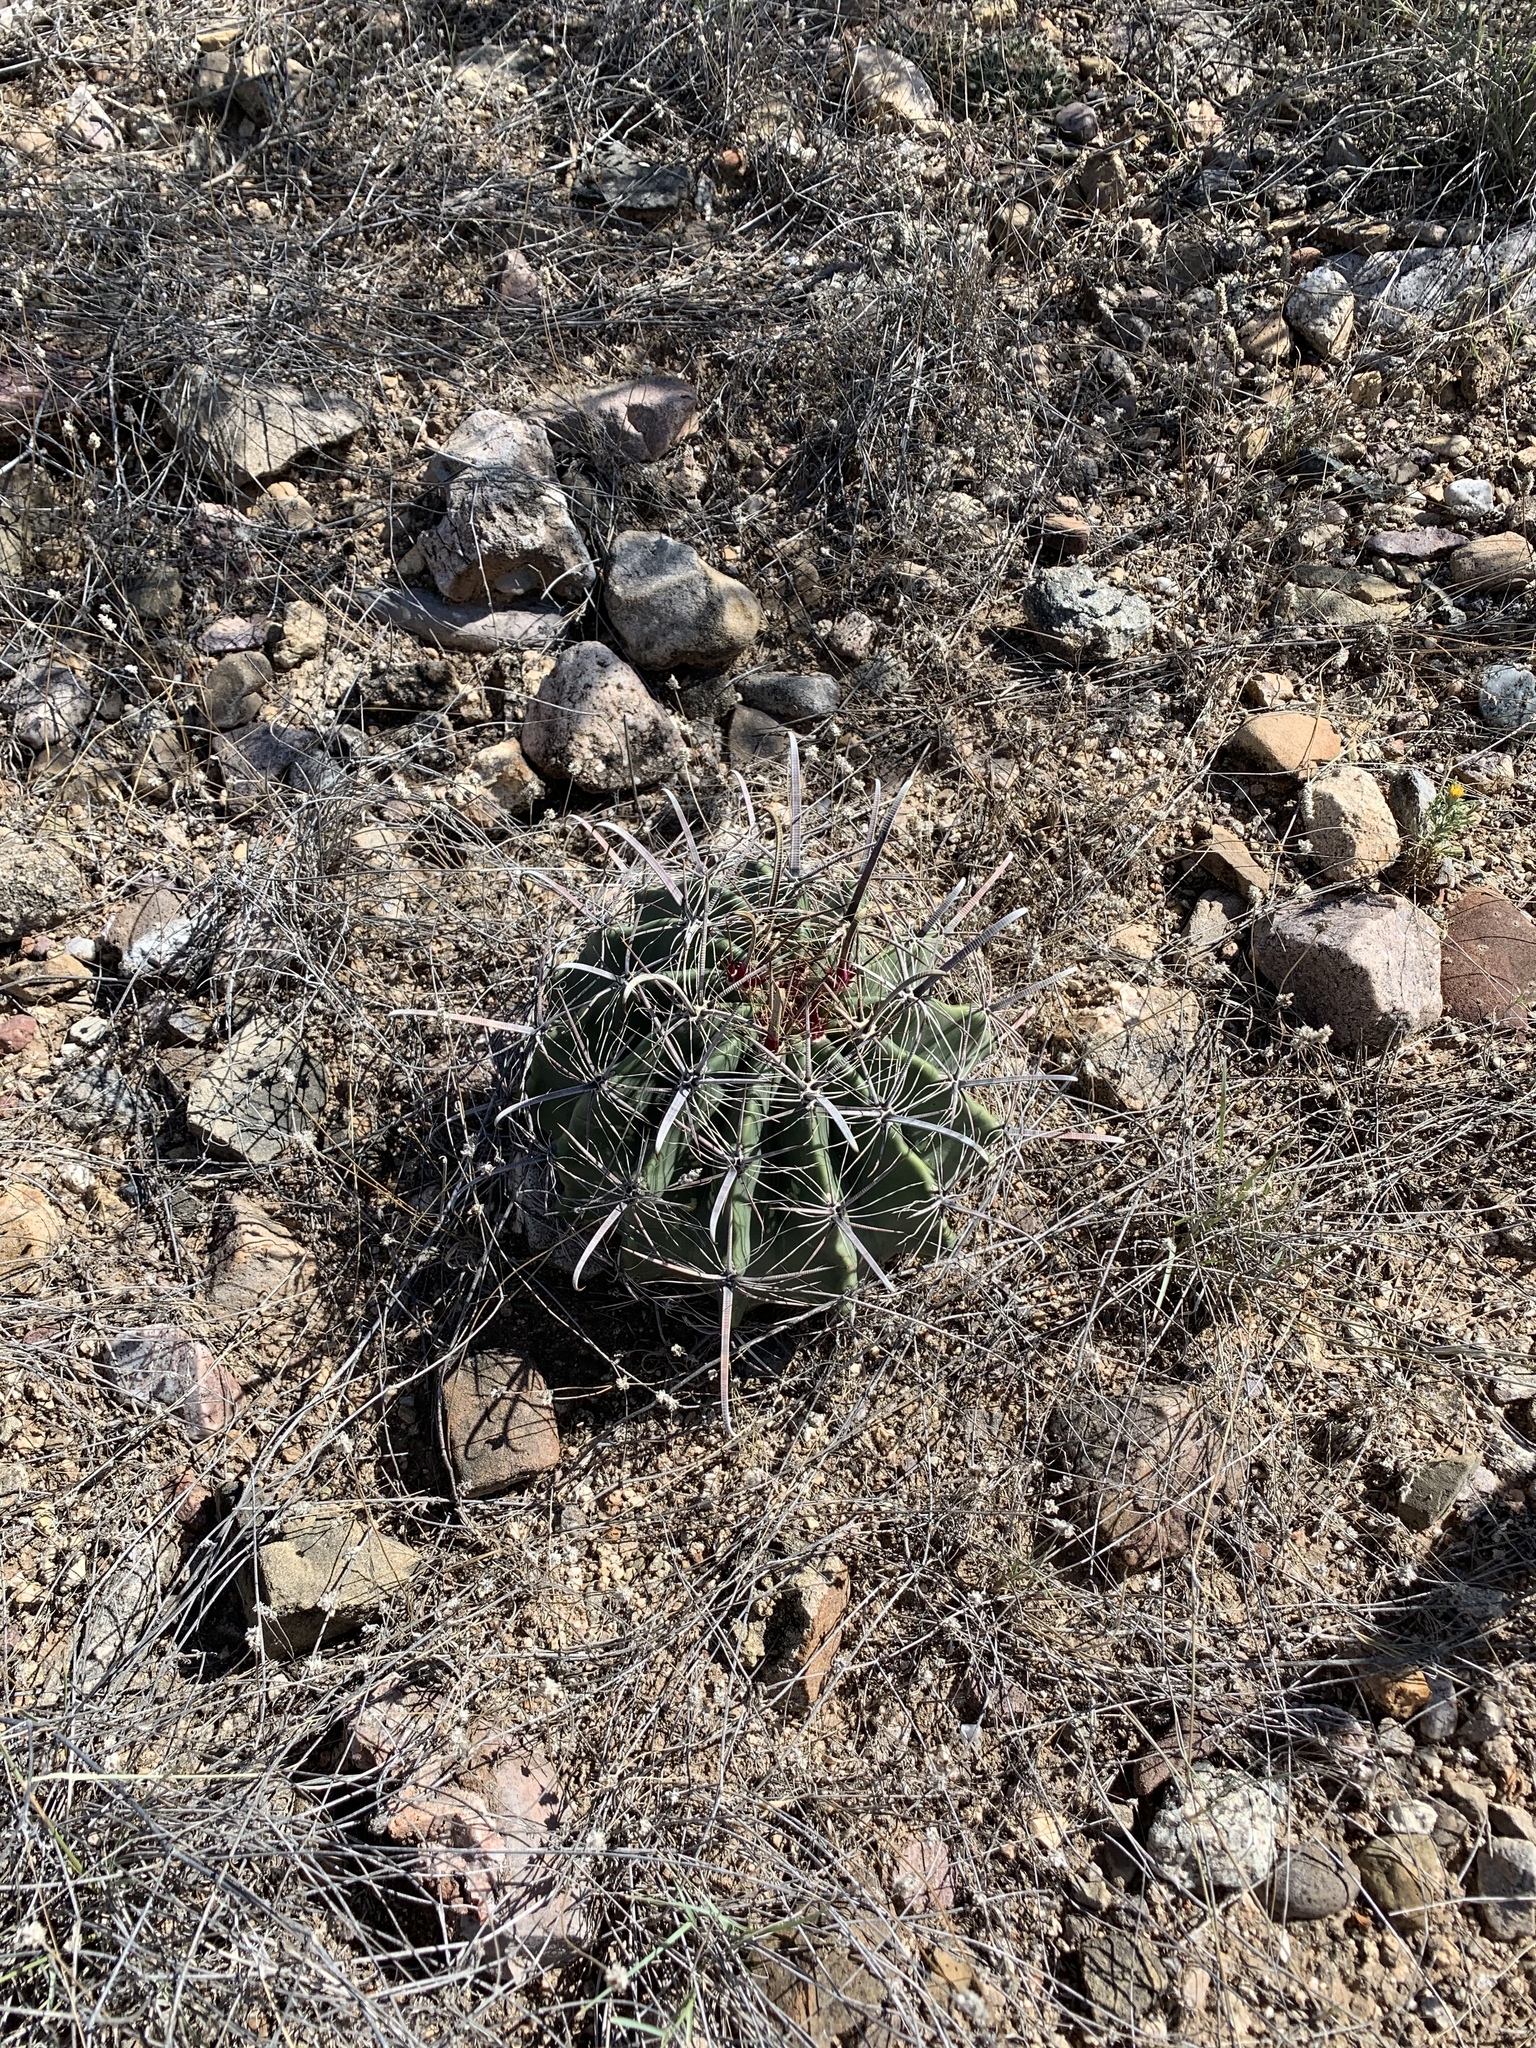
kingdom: Plantae
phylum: Tracheophyta
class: Magnoliopsida
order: Caryophyllales
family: Cactaceae
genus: Ferocactus
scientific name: Ferocactus wislizeni
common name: Candy barrel cactus
